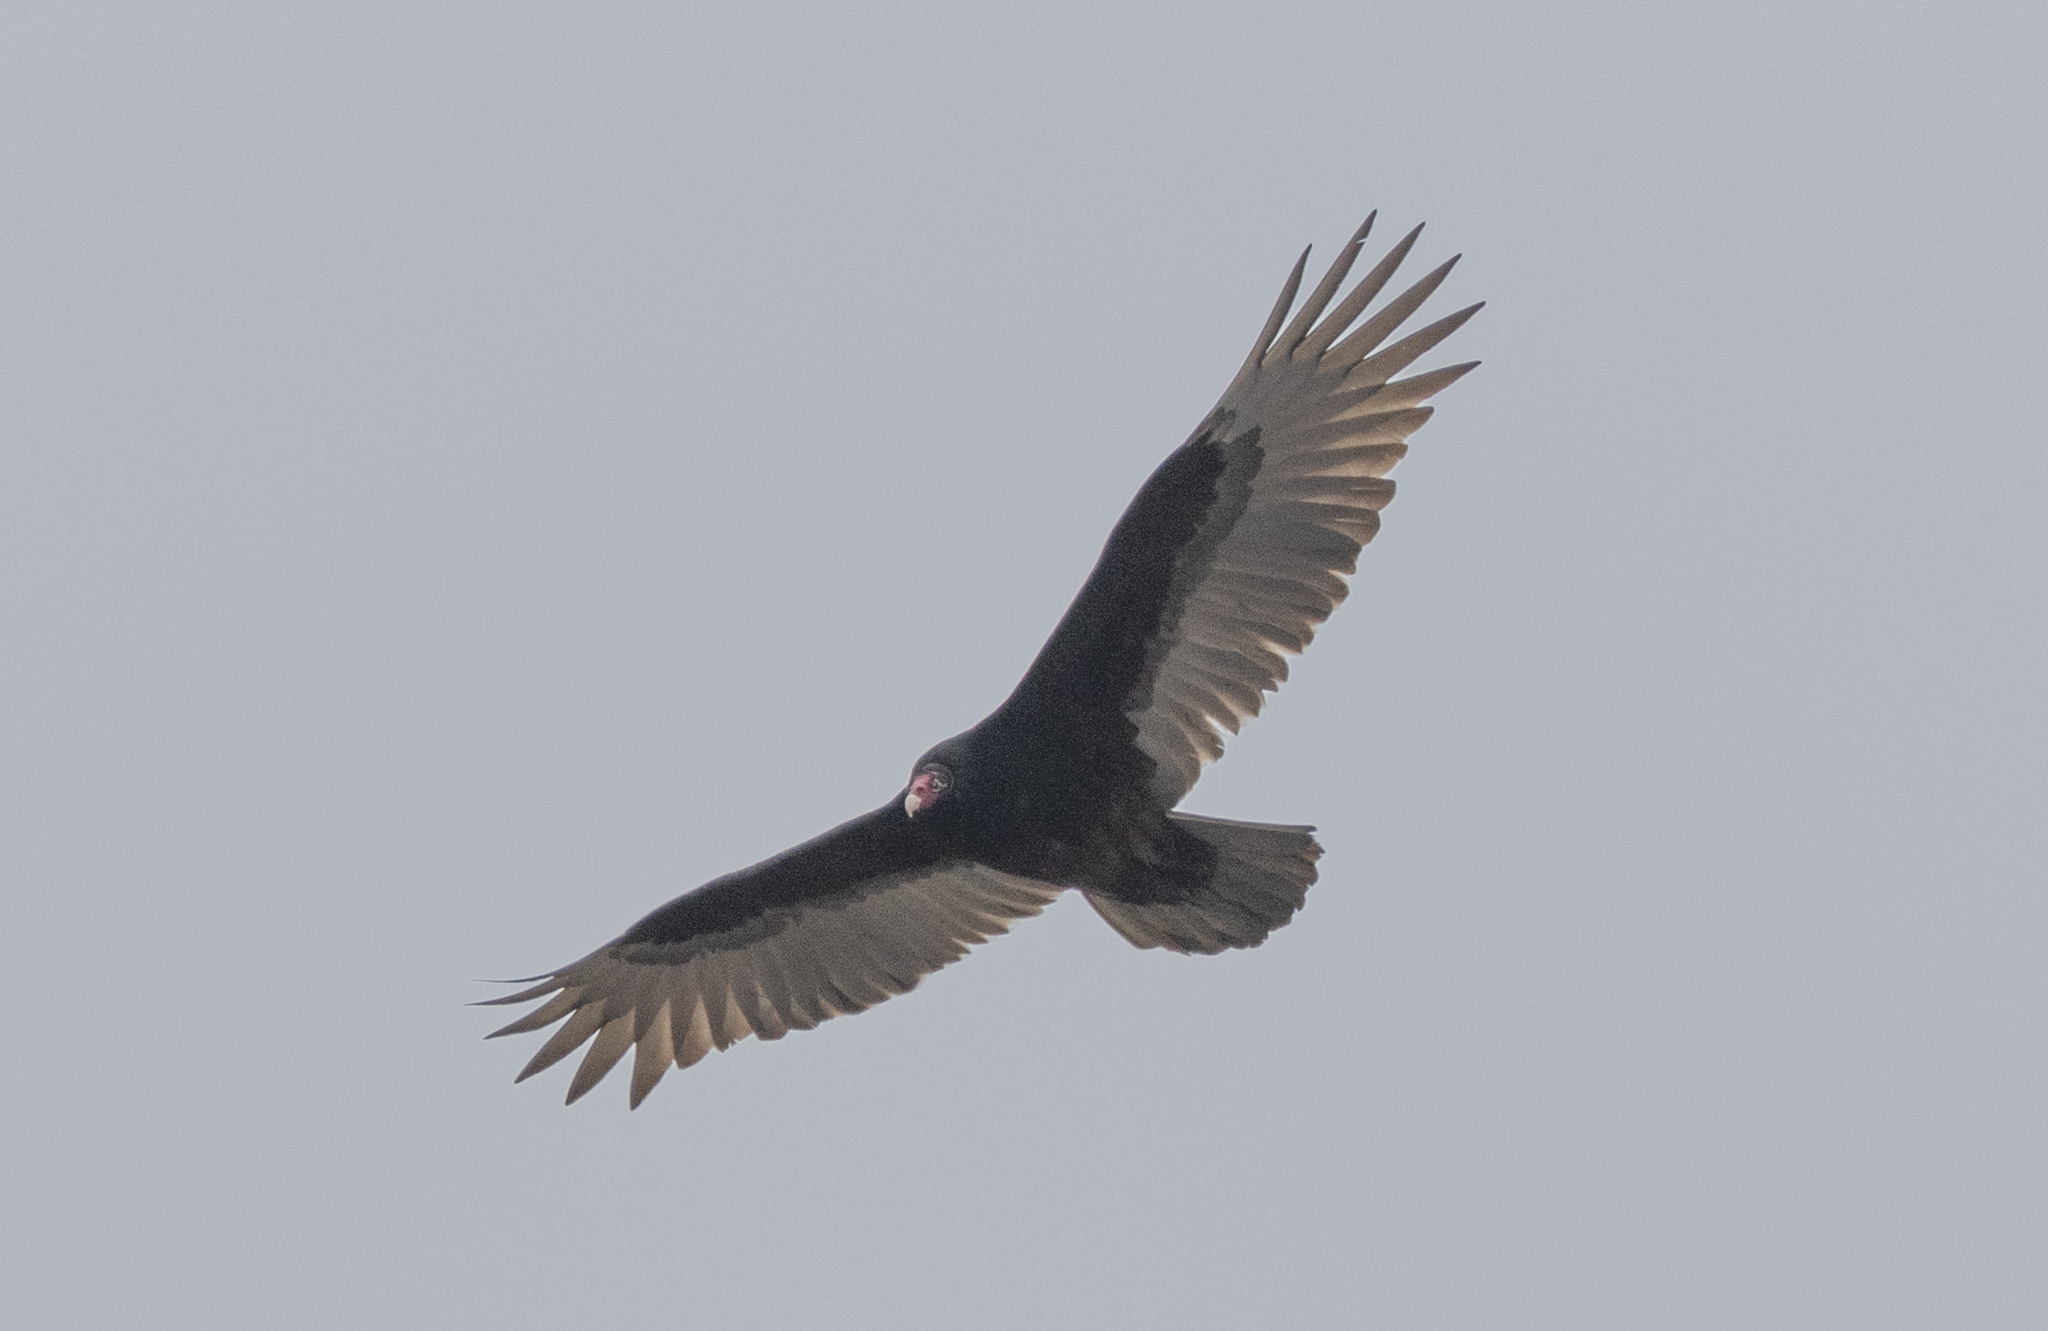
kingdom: Animalia
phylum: Chordata
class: Aves
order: Accipitriformes
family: Cathartidae
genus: Cathartes
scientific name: Cathartes aura
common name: Turkey vulture
